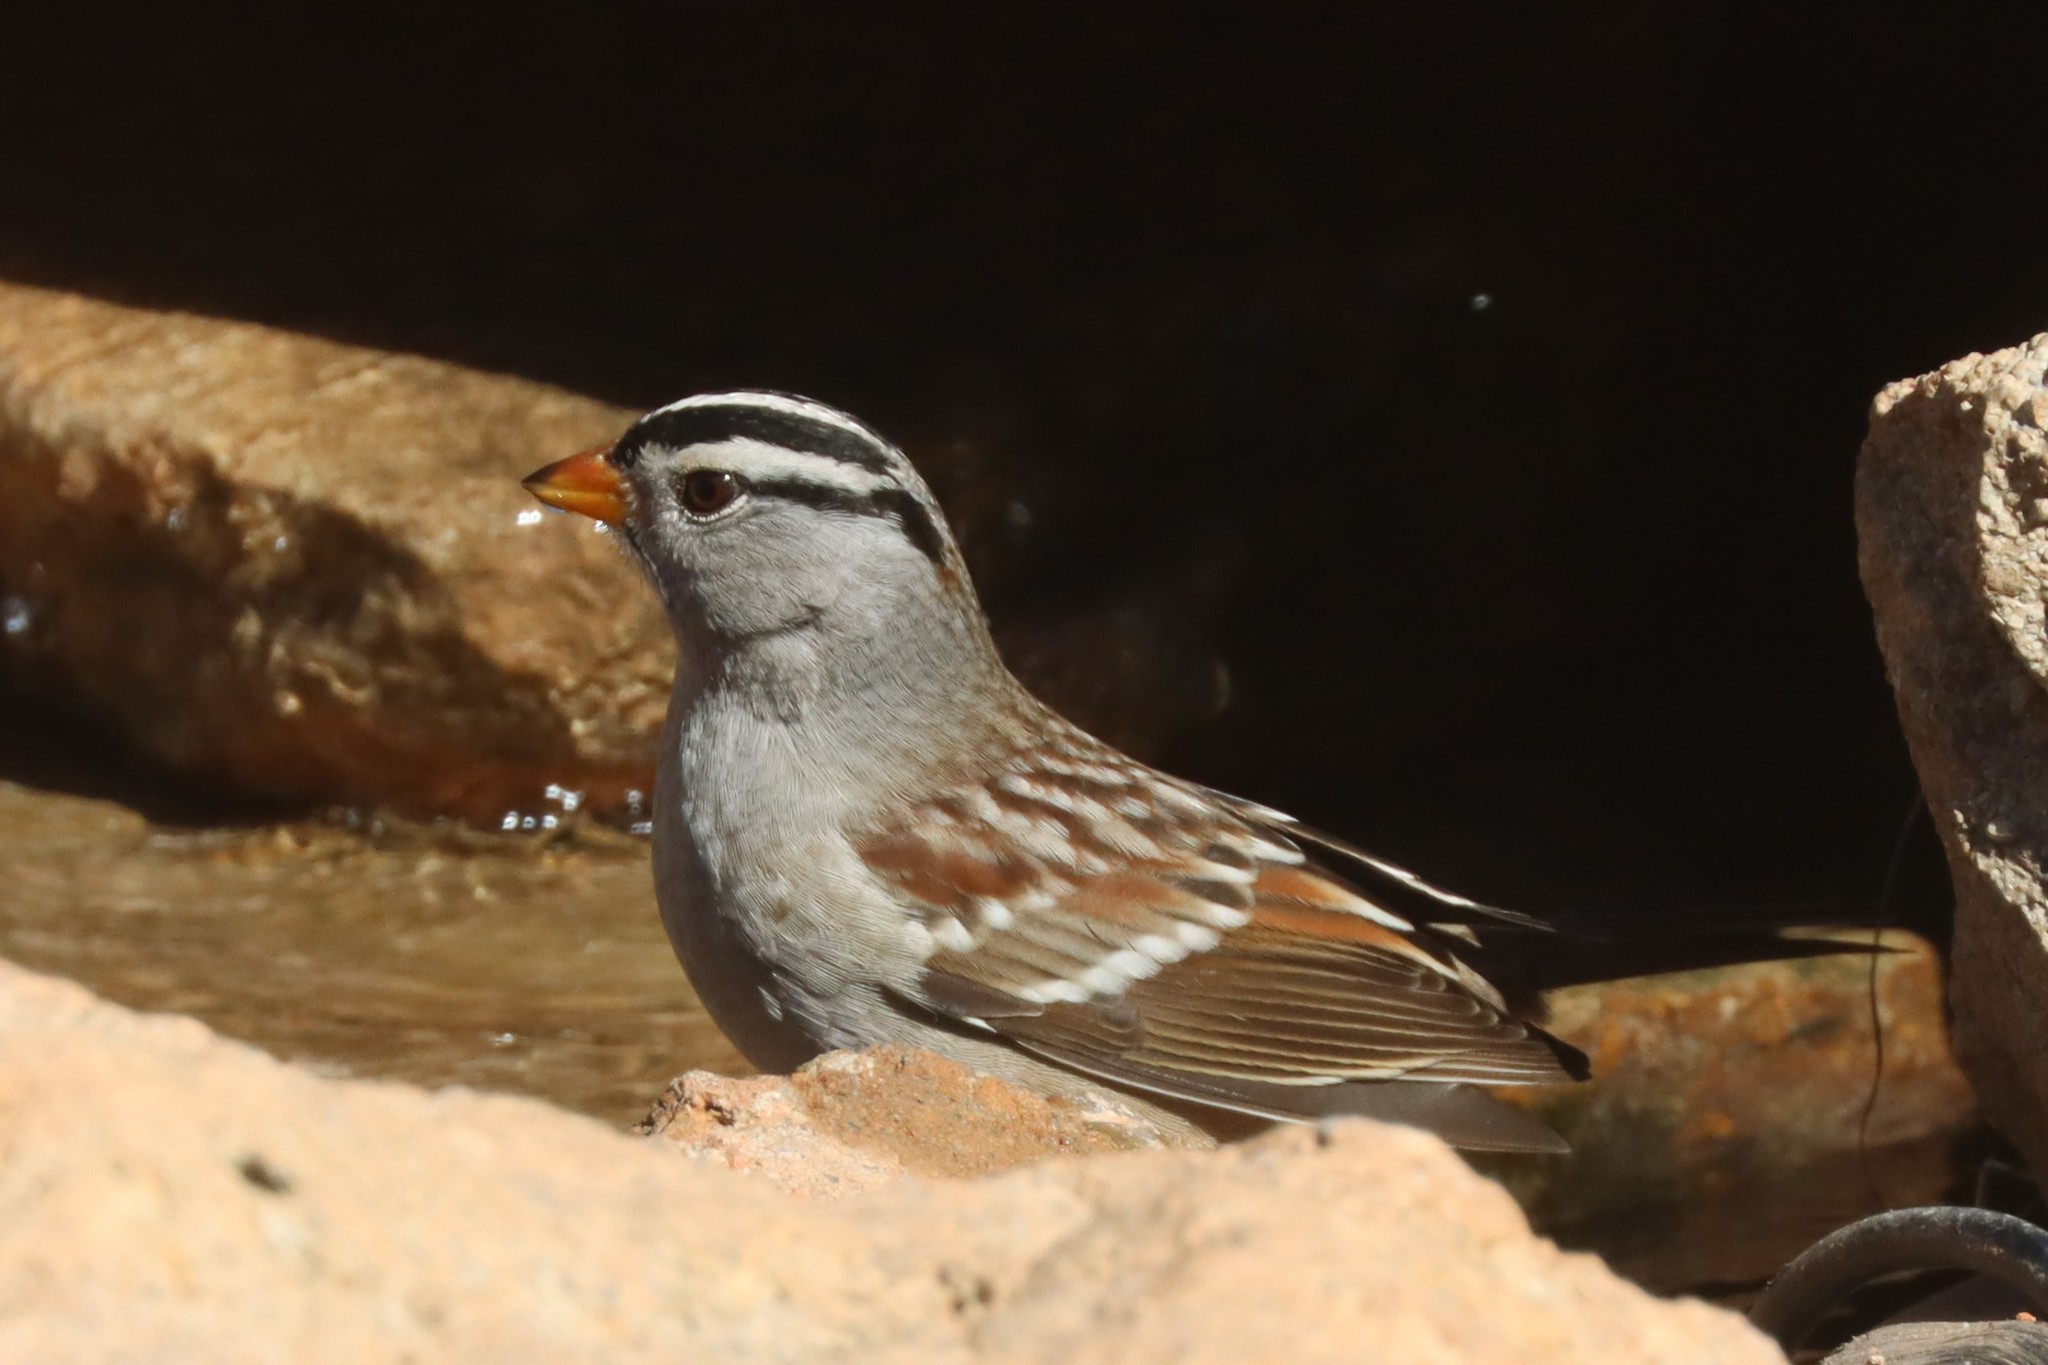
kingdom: Animalia
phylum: Chordata
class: Aves
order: Passeriformes
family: Passerellidae
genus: Zonotrichia
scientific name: Zonotrichia leucophrys
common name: White-crowned sparrow
